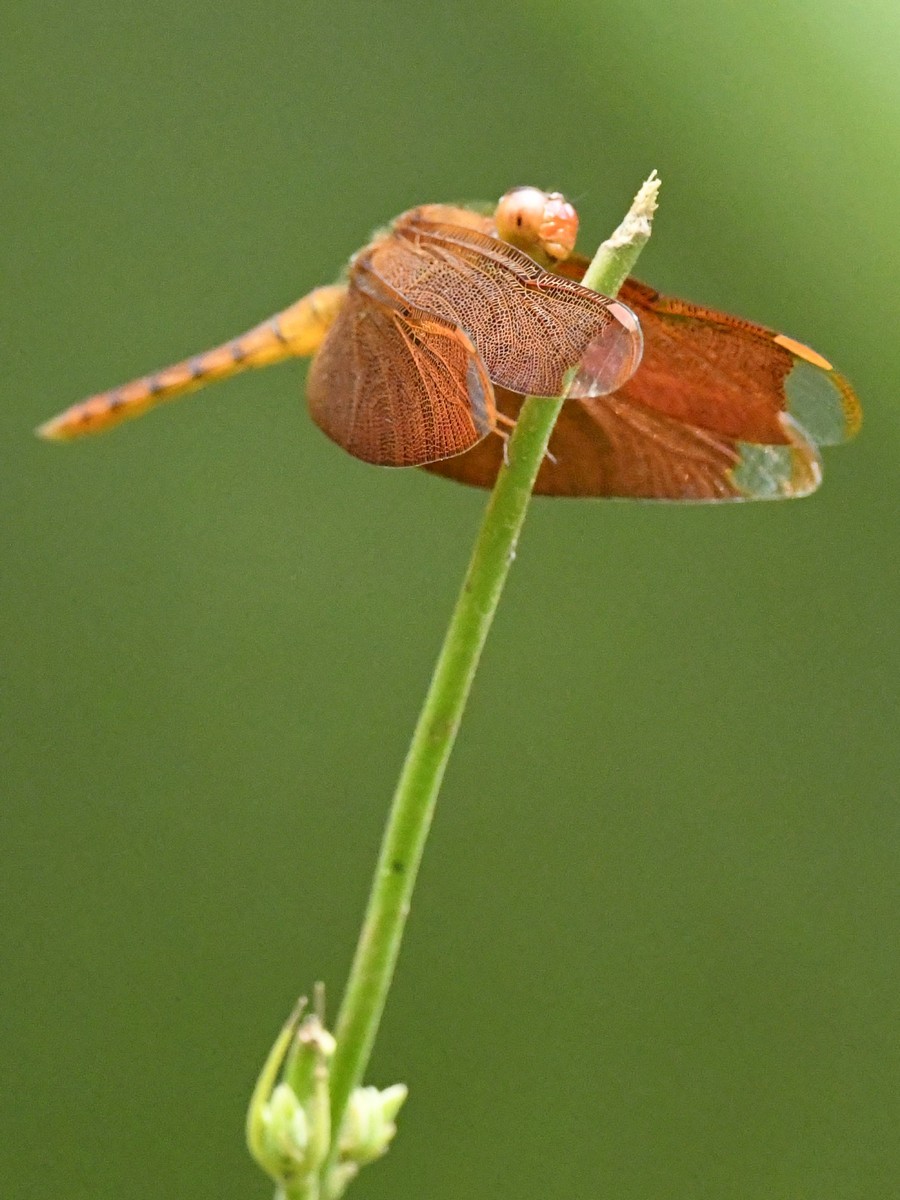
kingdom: Animalia
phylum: Arthropoda
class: Insecta
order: Odonata
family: Libellulidae
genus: Neurothemis
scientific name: Neurothemis fulvia
